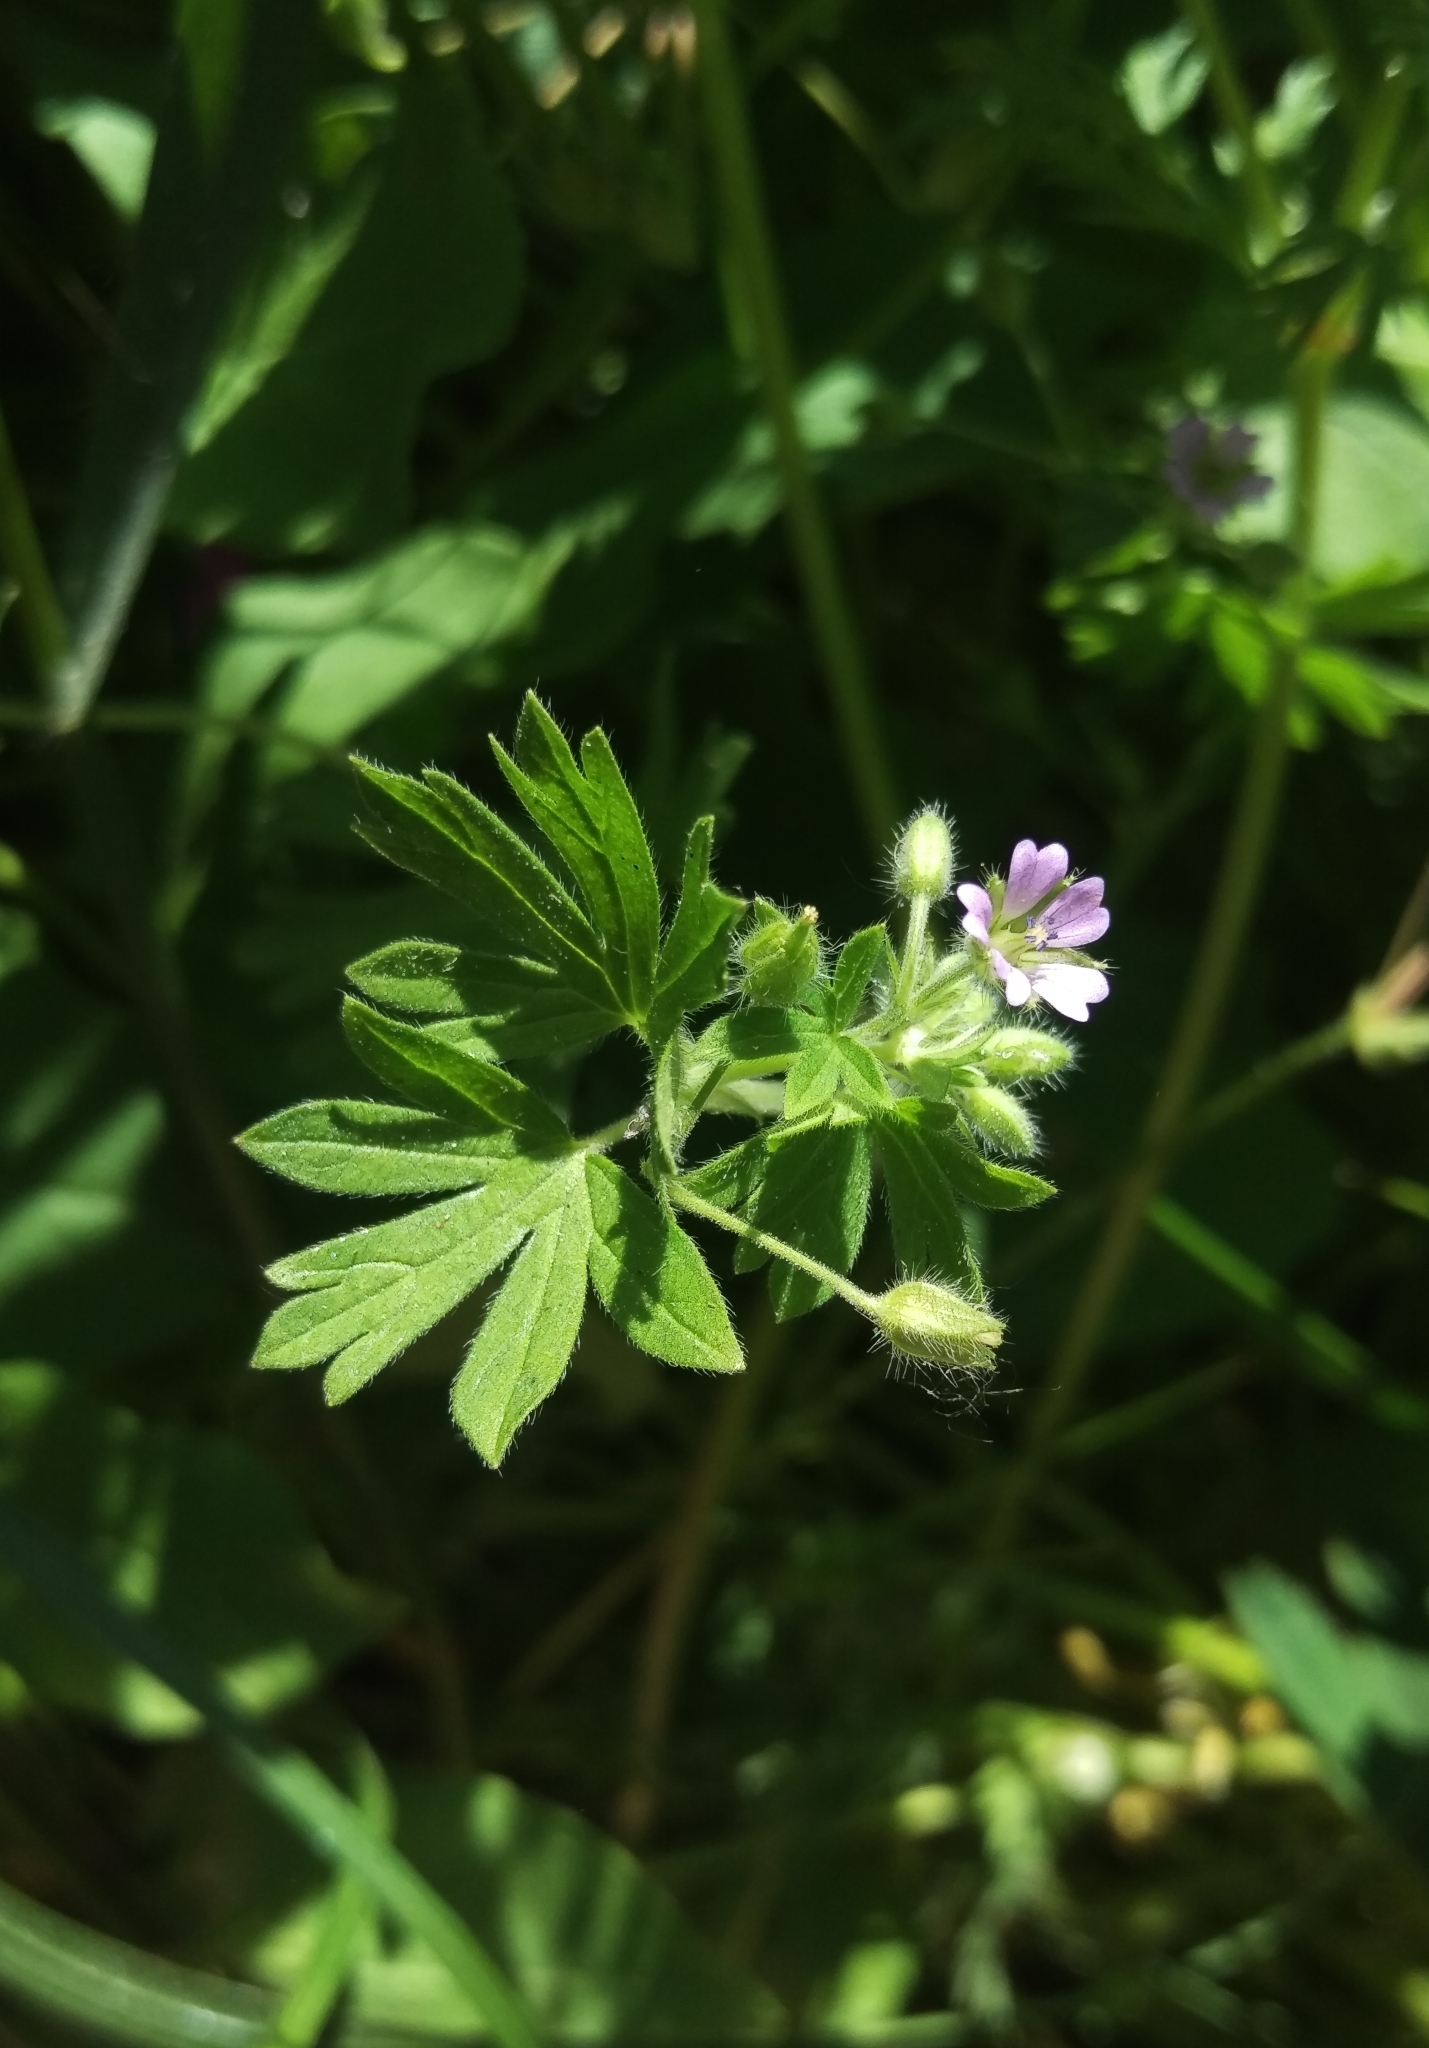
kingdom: Plantae
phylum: Tracheophyta
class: Magnoliopsida
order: Geraniales
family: Geraniaceae
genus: Geranium
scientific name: Geranium pusillum
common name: Small geranium
